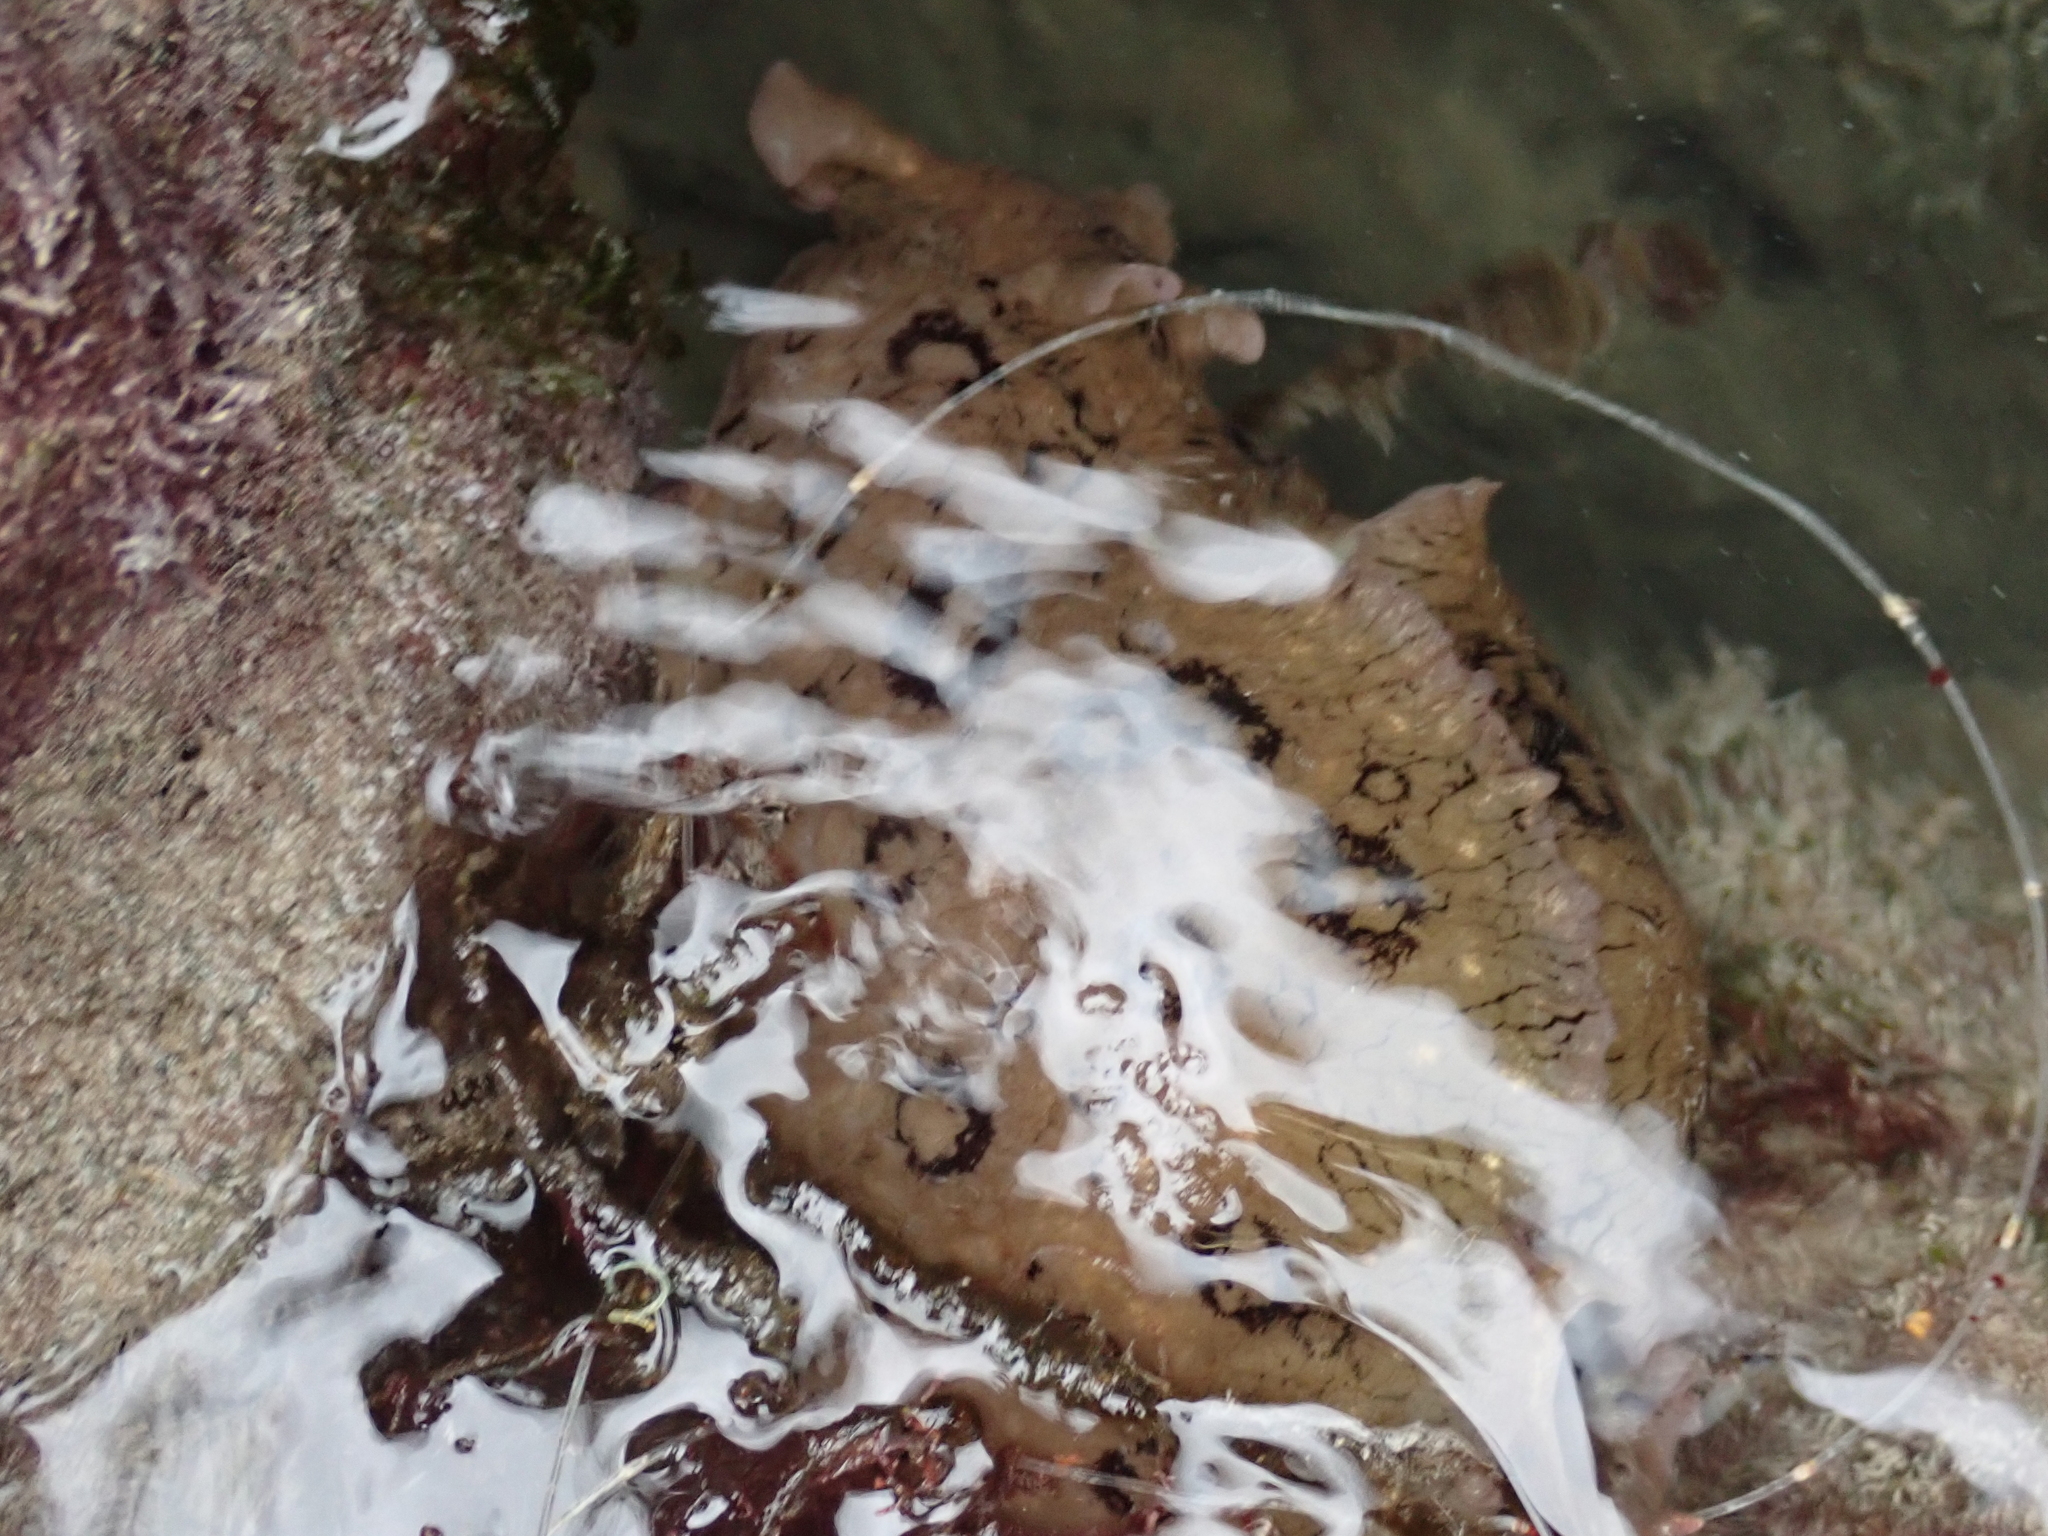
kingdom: Animalia
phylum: Mollusca
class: Gastropoda
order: Aplysiida
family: Aplysiidae
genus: Aplysia
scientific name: Aplysia dactylomela
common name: Large-spotted sea hare
